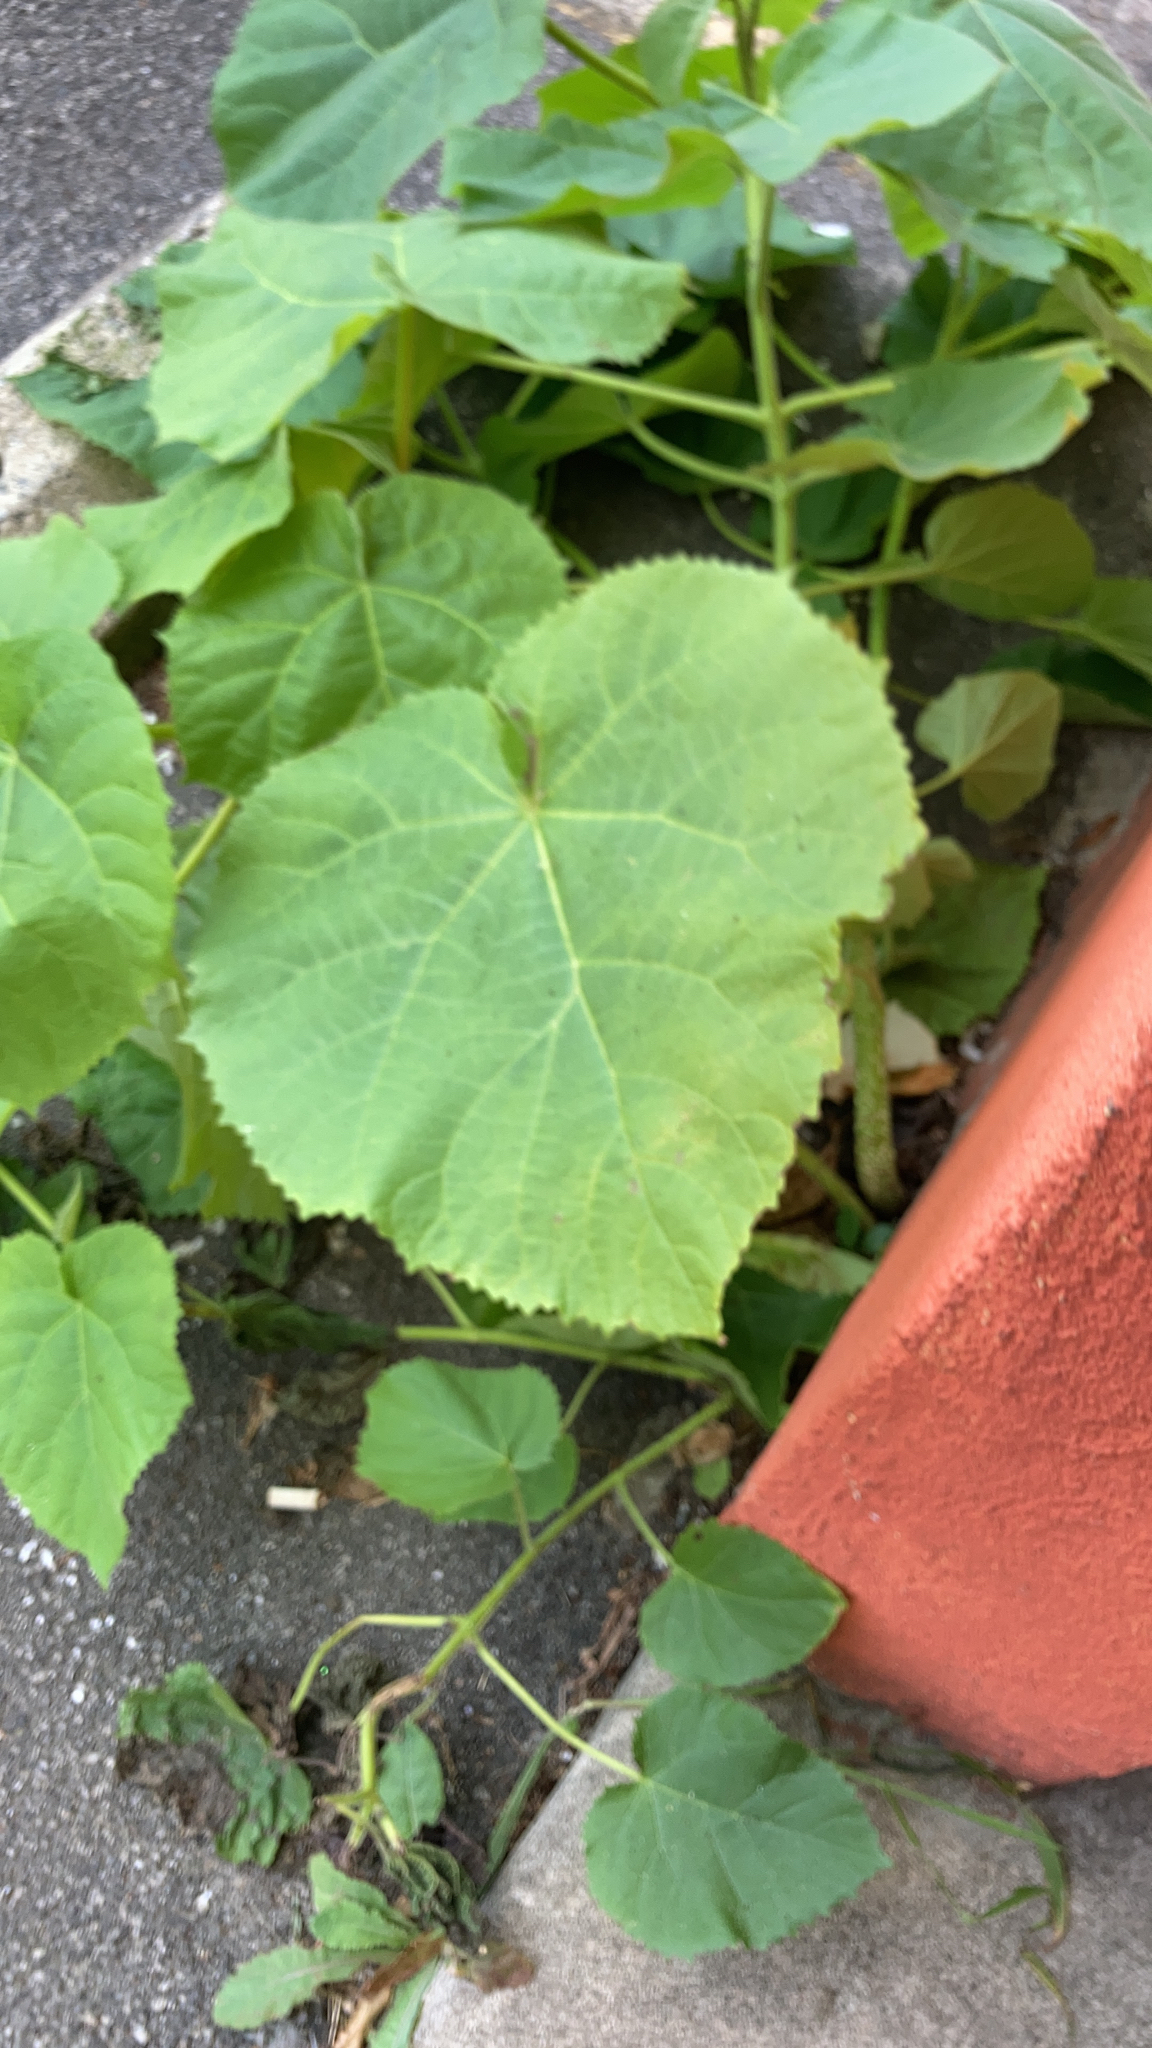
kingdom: Plantae
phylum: Tracheophyta
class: Magnoliopsida
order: Lamiales
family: Paulowniaceae
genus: Paulownia
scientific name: Paulownia tomentosa
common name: Foxglove-tree
